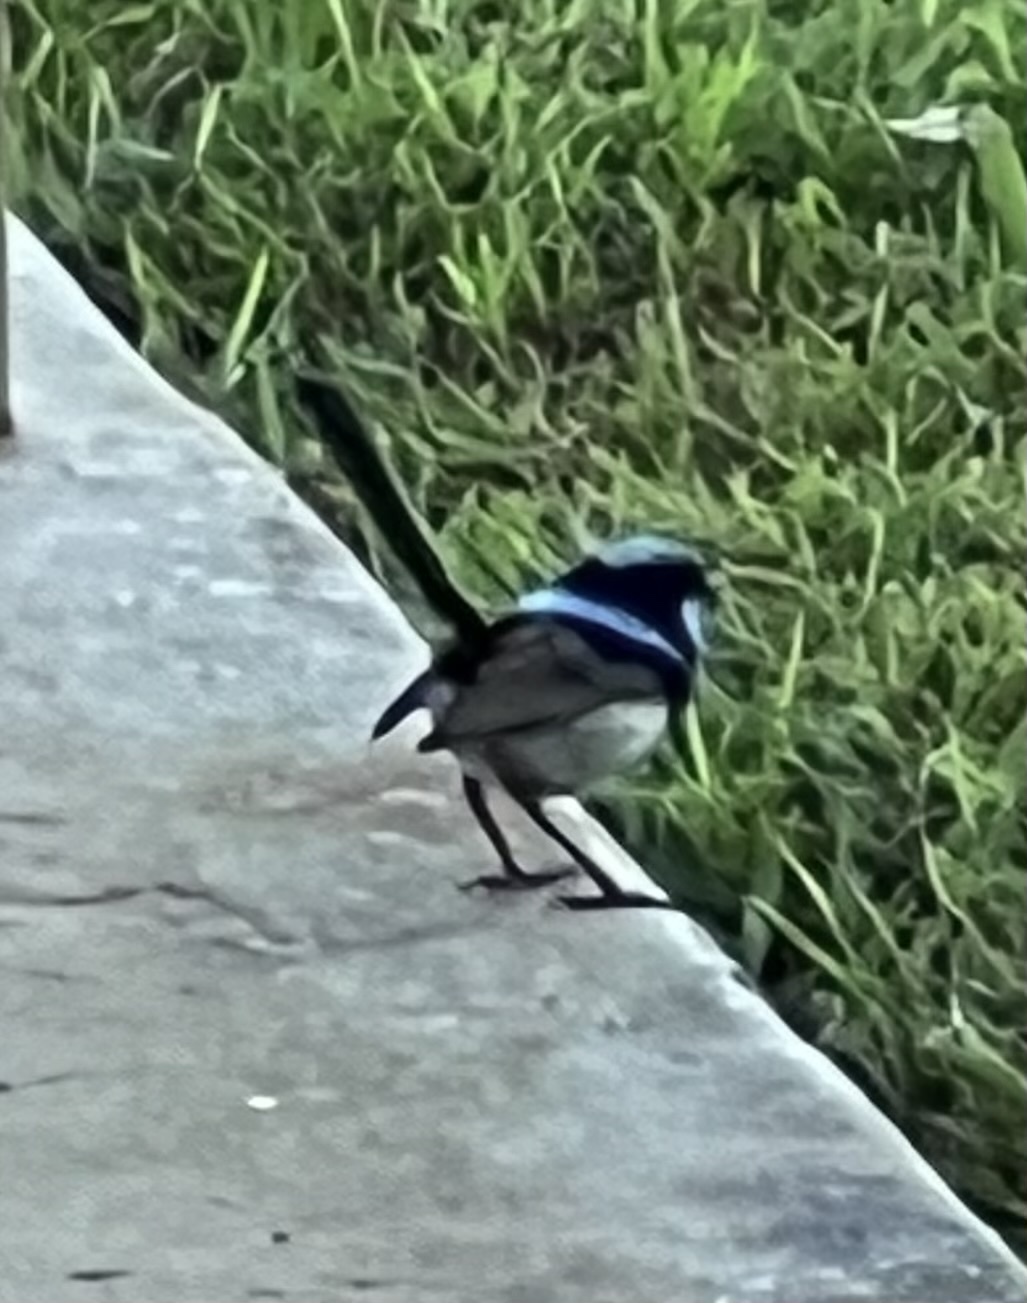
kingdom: Animalia
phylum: Chordata
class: Aves
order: Passeriformes
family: Maluridae
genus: Malurus
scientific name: Malurus cyaneus
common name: Superb fairywren
